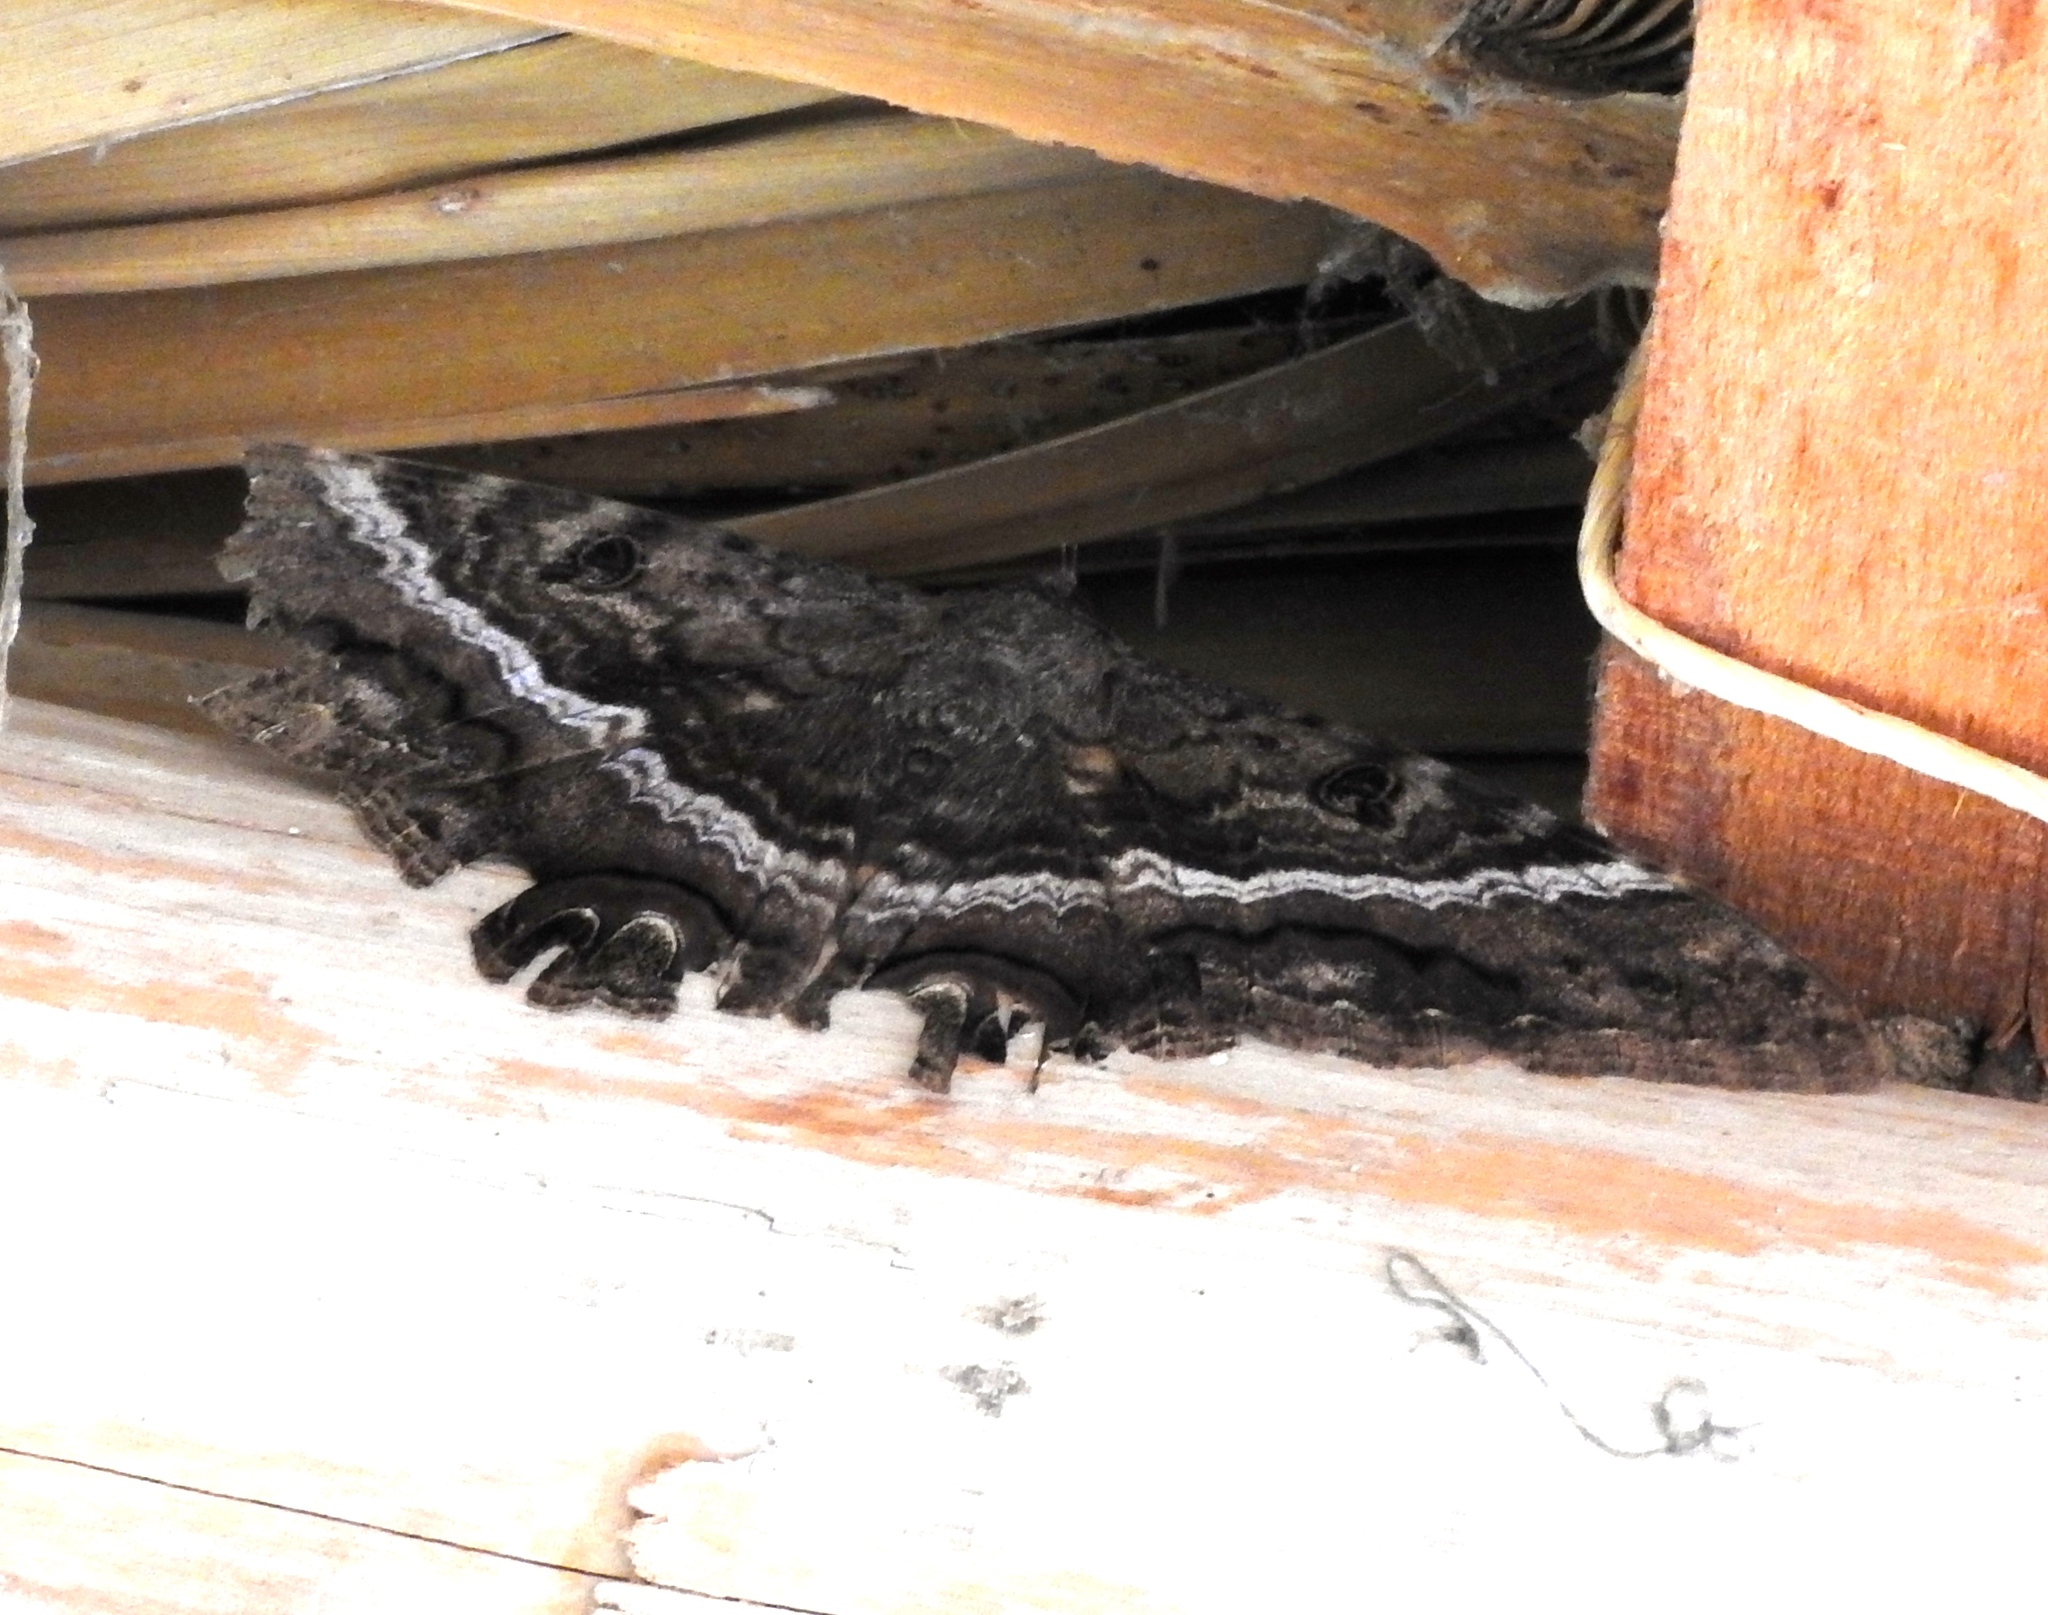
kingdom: Animalia
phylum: Arthropoda
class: Insecta
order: Lepidoptera
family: Erebidae
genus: Ascalapha
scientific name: Ascalapha odorata
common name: Black witch
